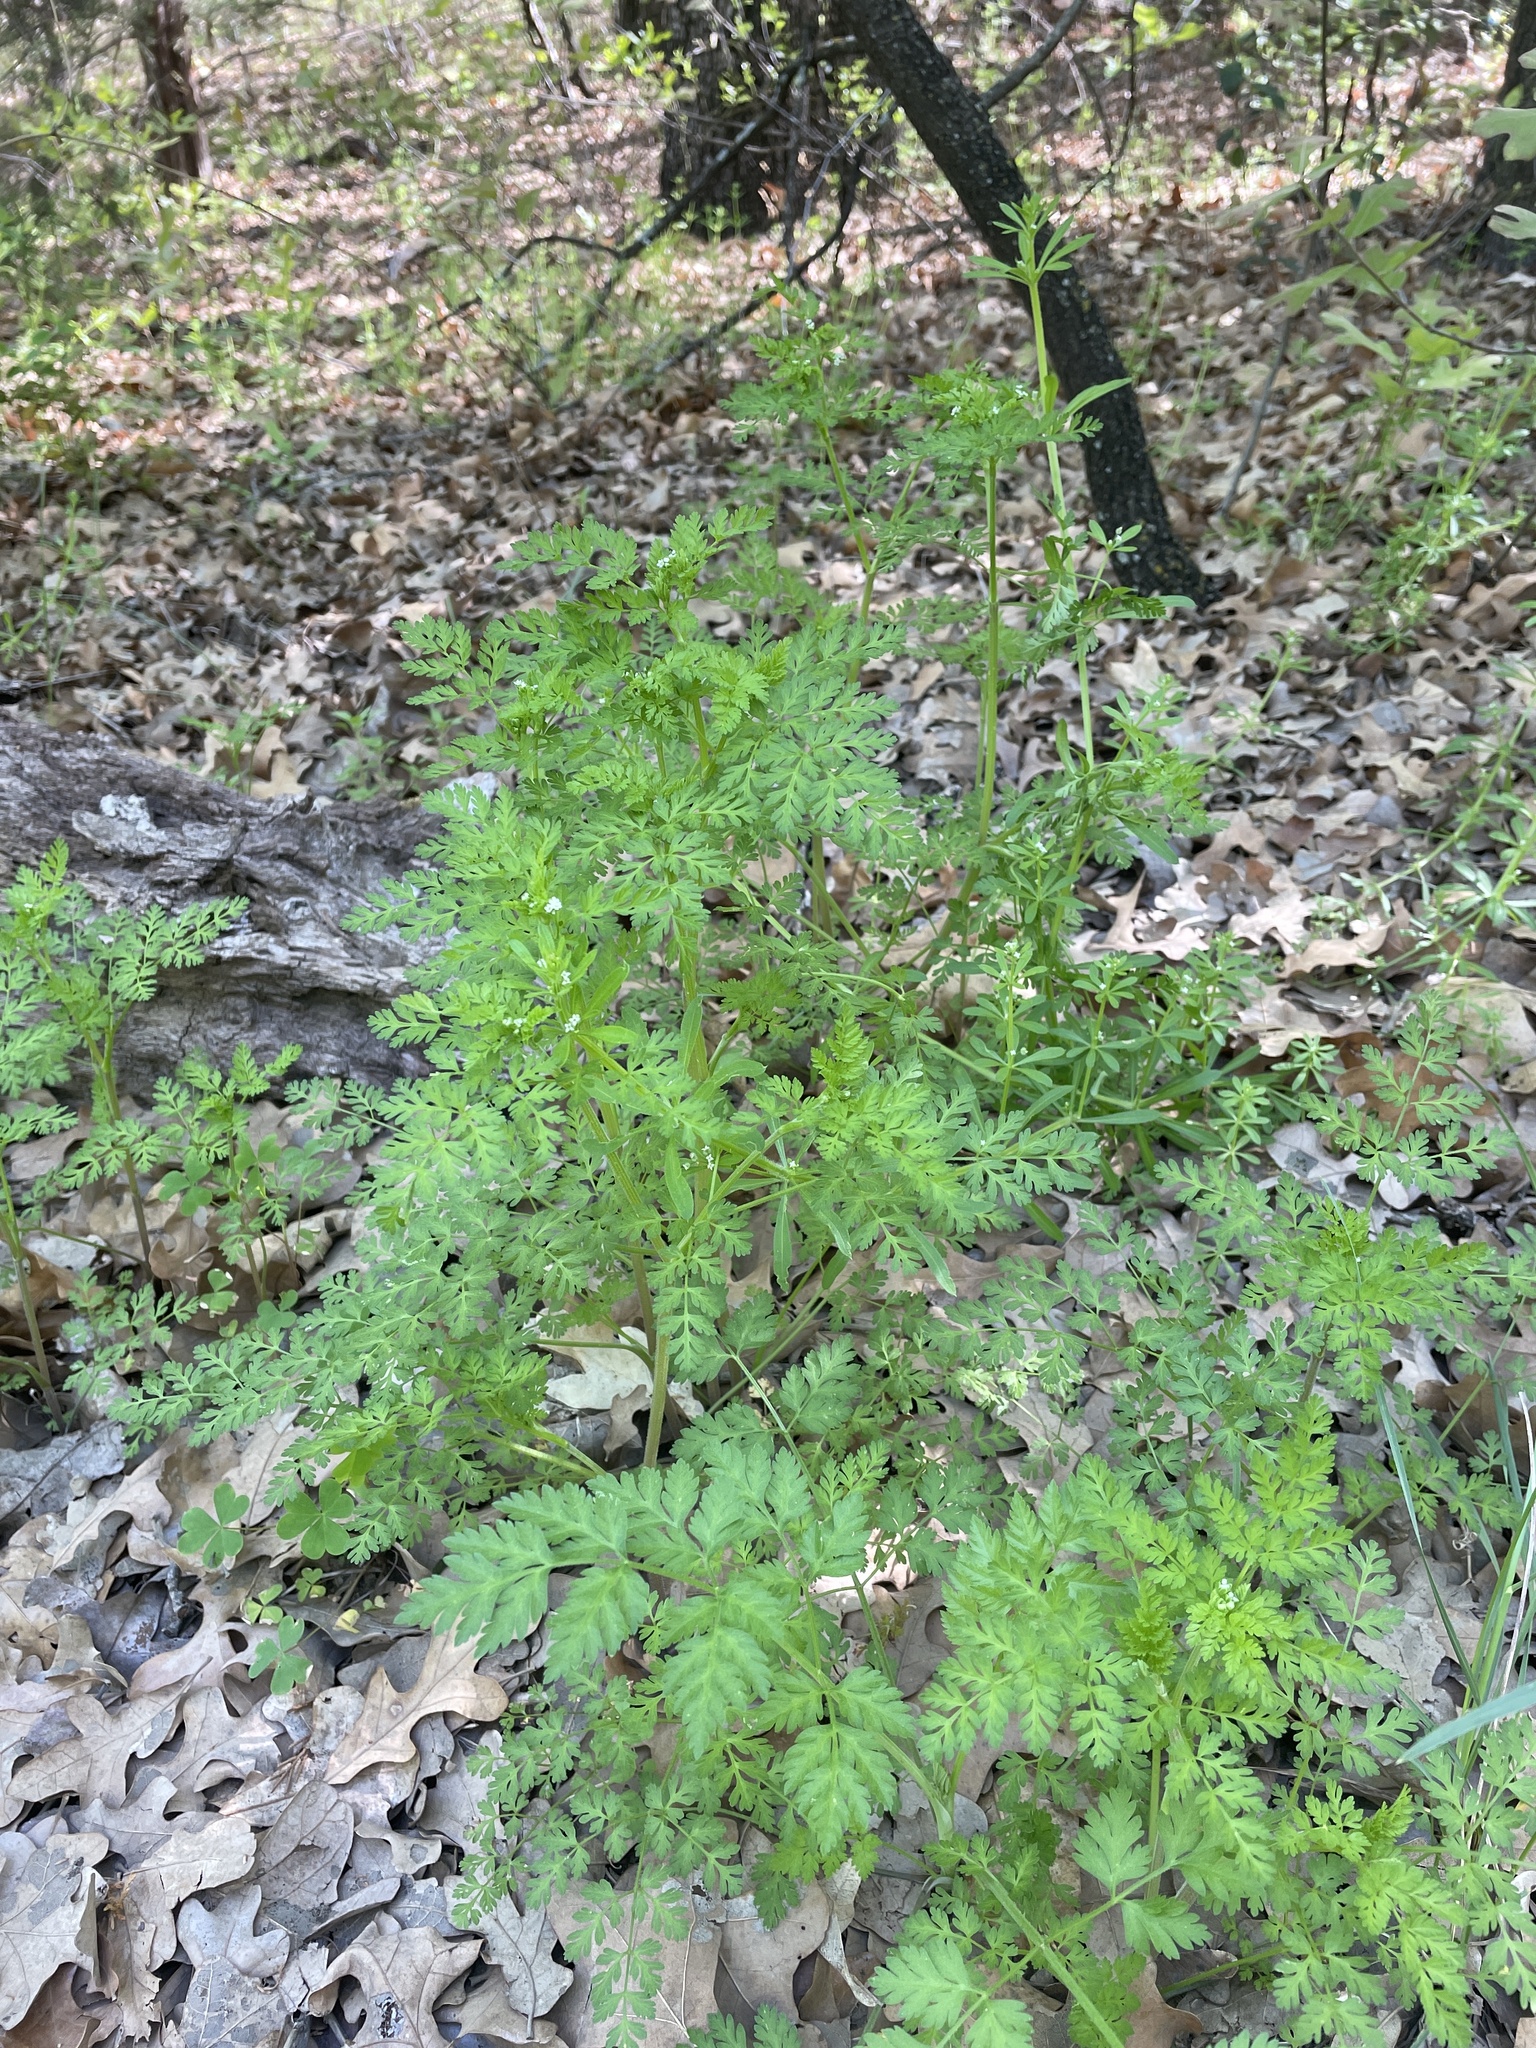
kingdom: Plantae
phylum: Tracheophyta
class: Magnoliopsida
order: Apiales
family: Apiaceae
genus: Chaerophyllum
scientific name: Chaerophyllum tainturieri
